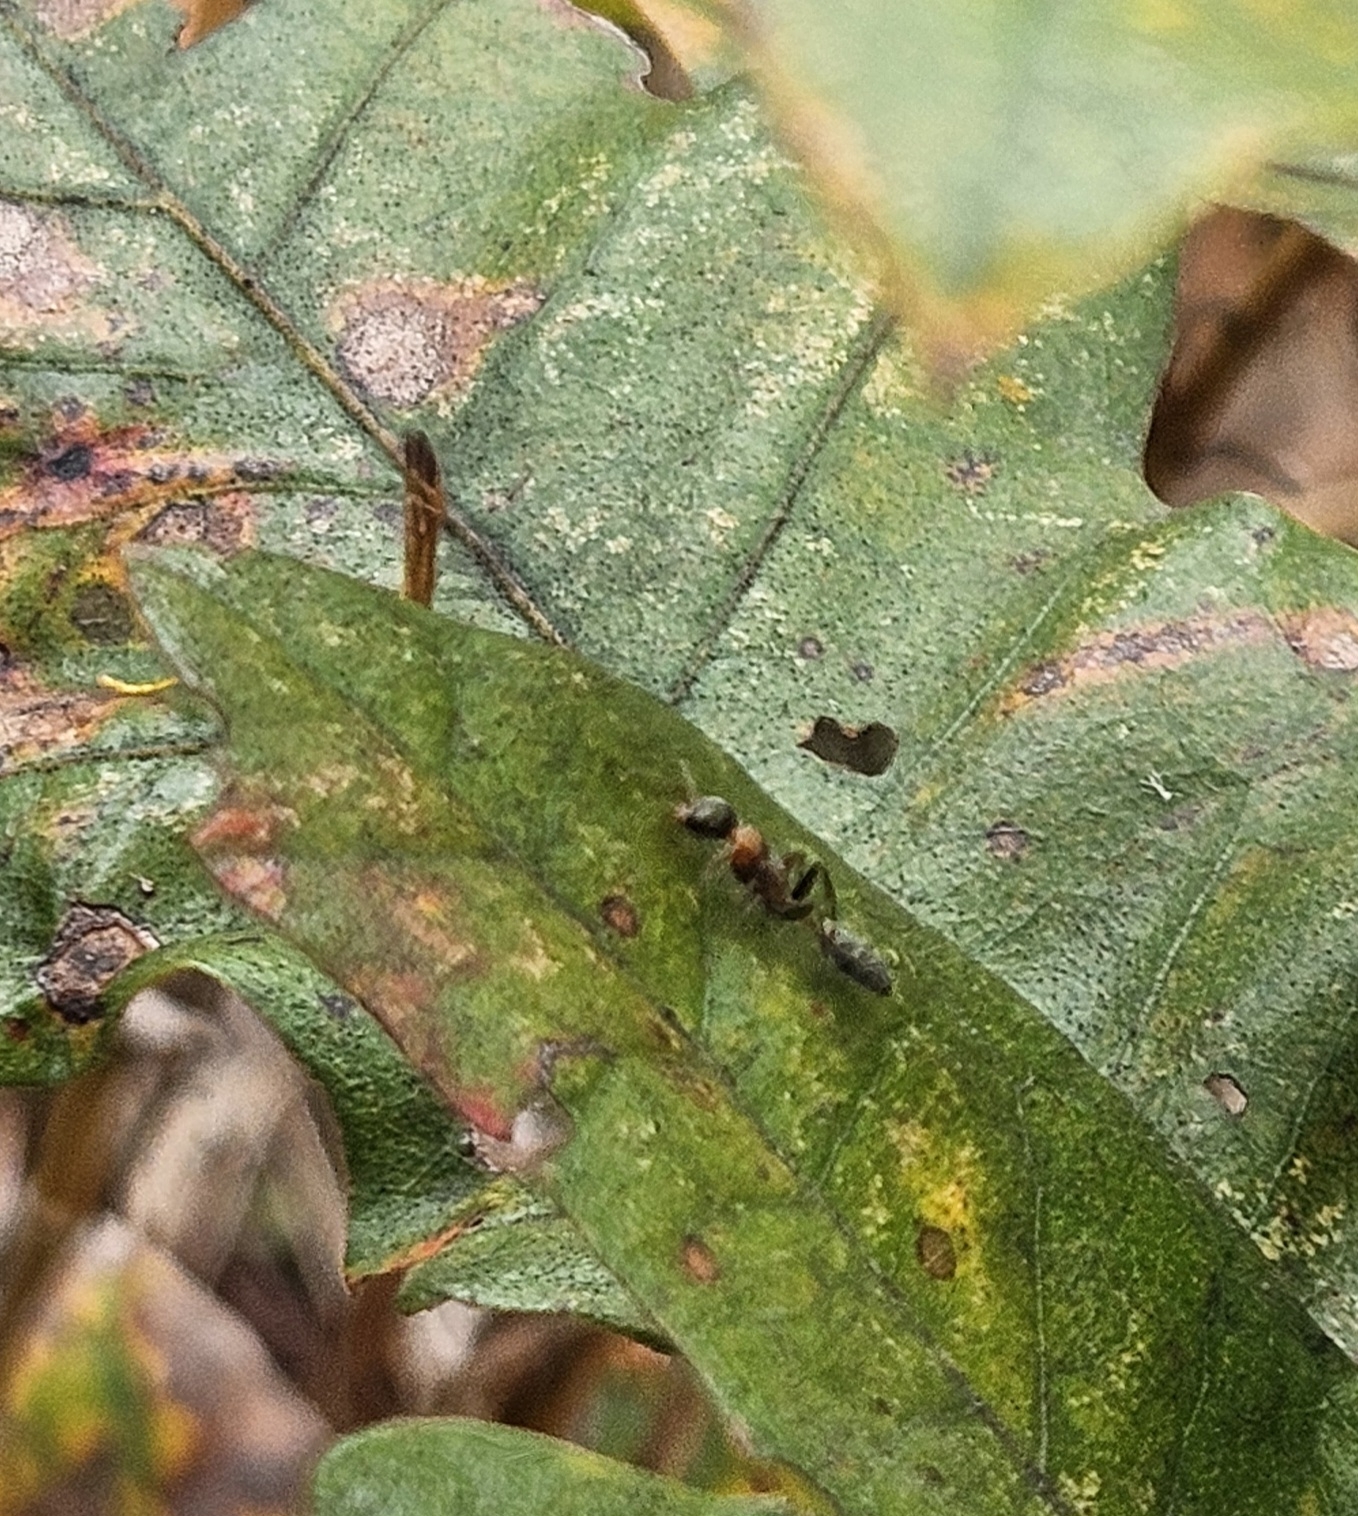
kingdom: Animalia
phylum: Arthropoda
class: Insecta
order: Hymenoptera
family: Formicidae
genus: Pseudomyrmex
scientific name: Pseudomyrmex gracilis
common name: Graceful twig ant
